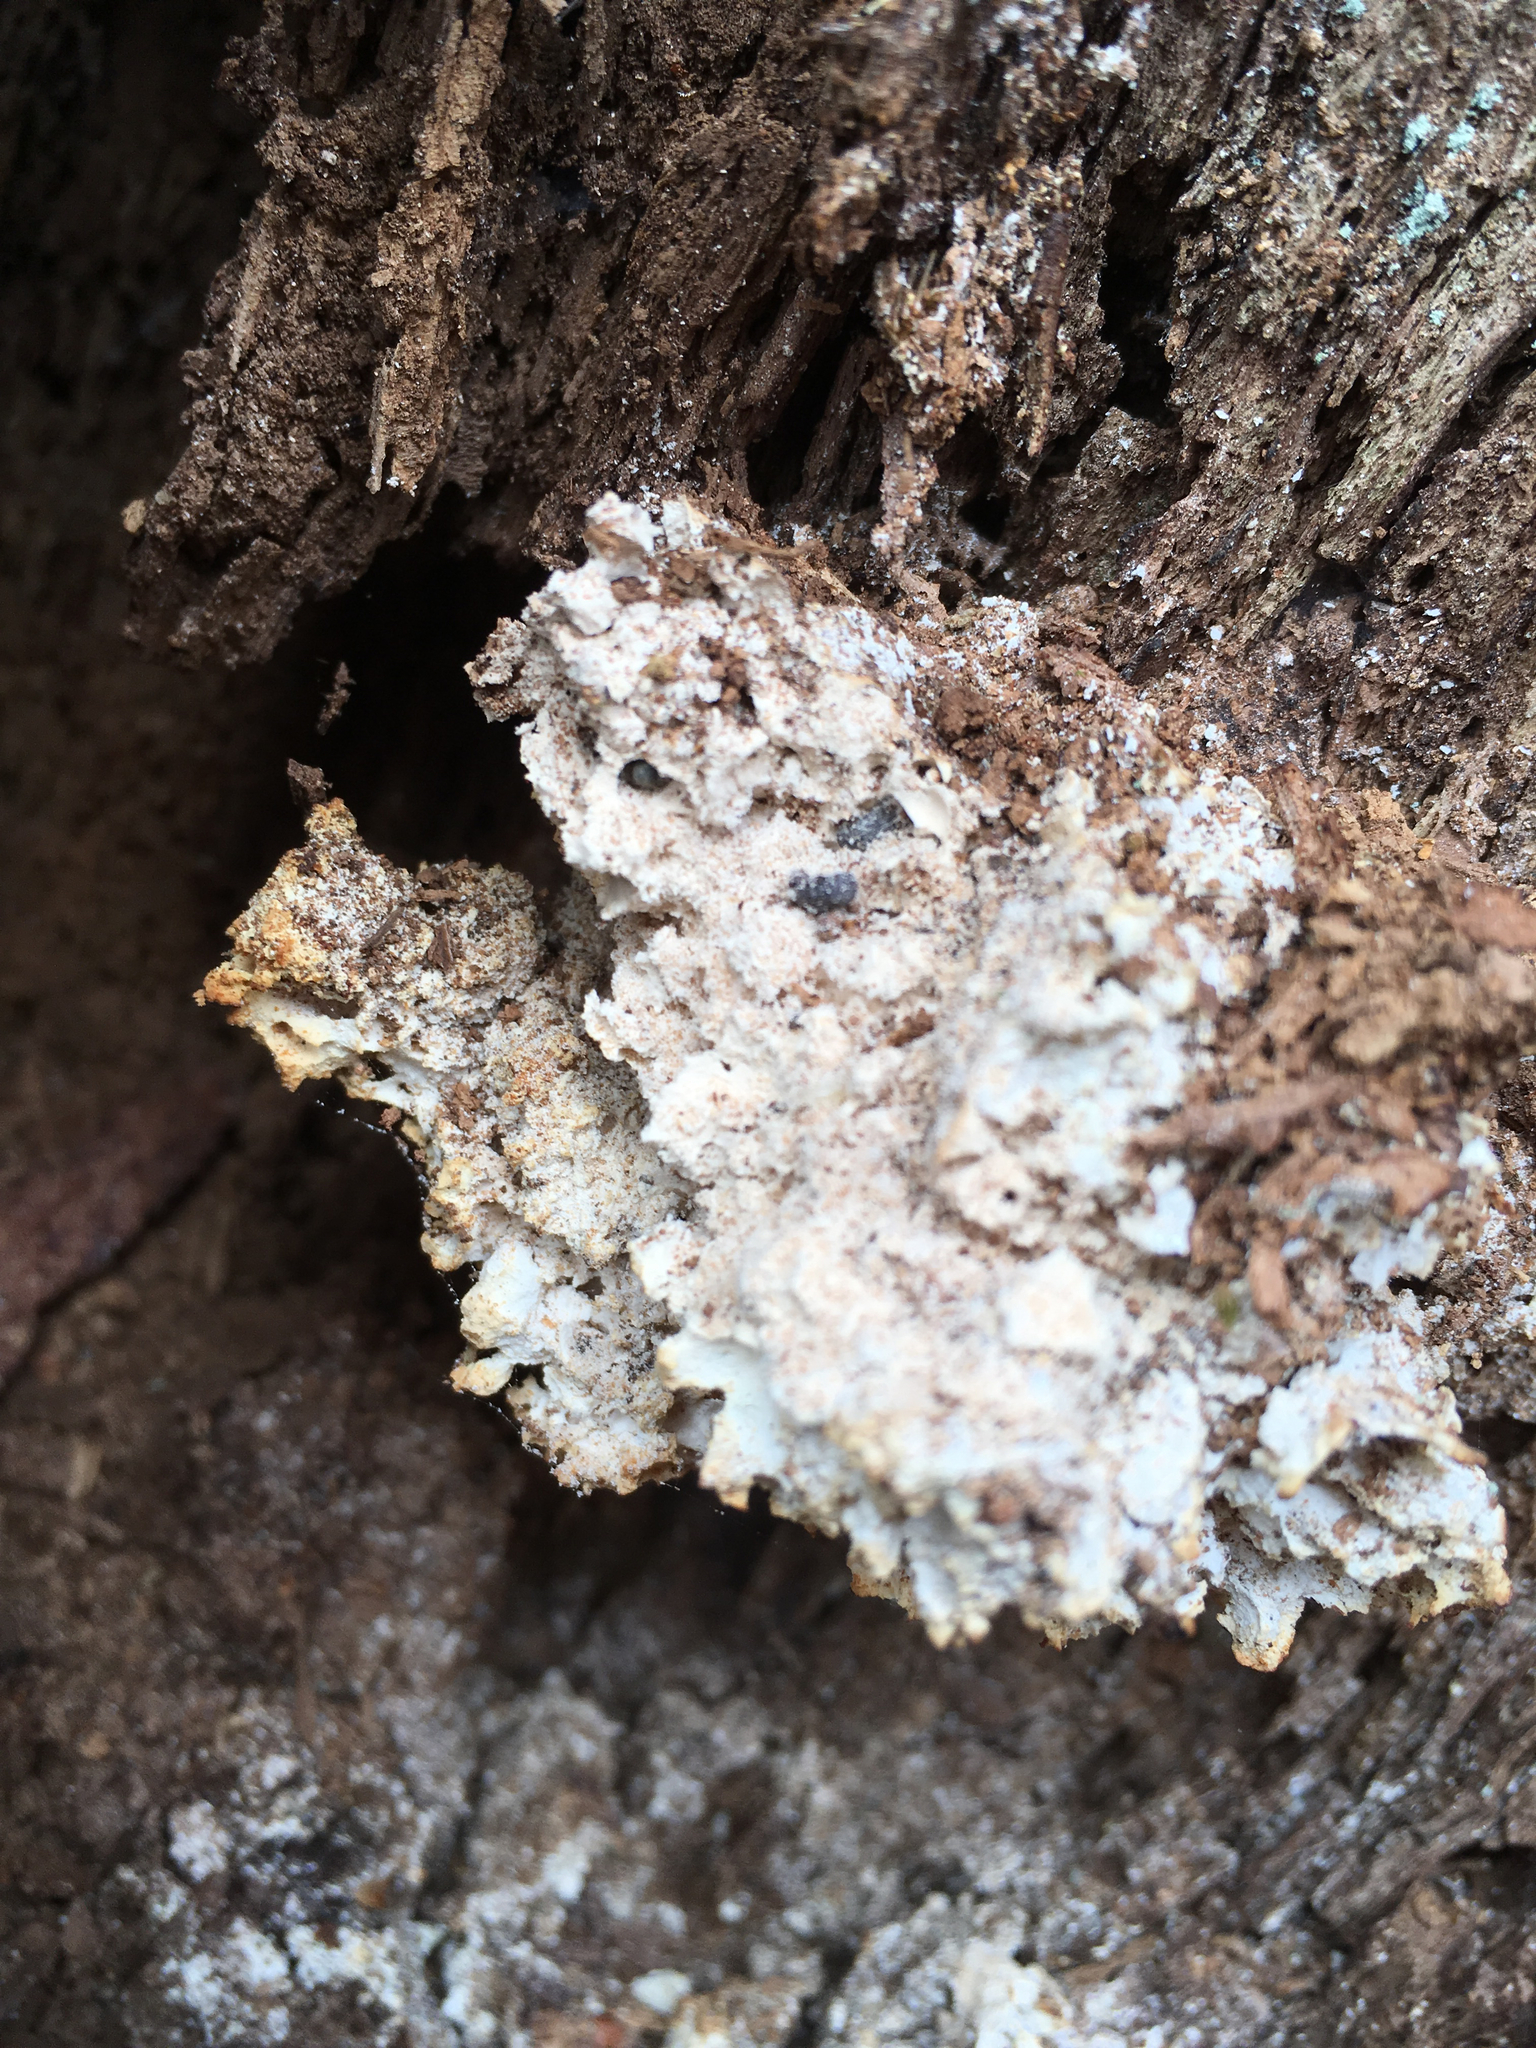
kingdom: Animalia
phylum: Arthropoda
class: Insecta
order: Coleoptera
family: Tenebrionidae
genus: Eledona
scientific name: Eledona agricola
